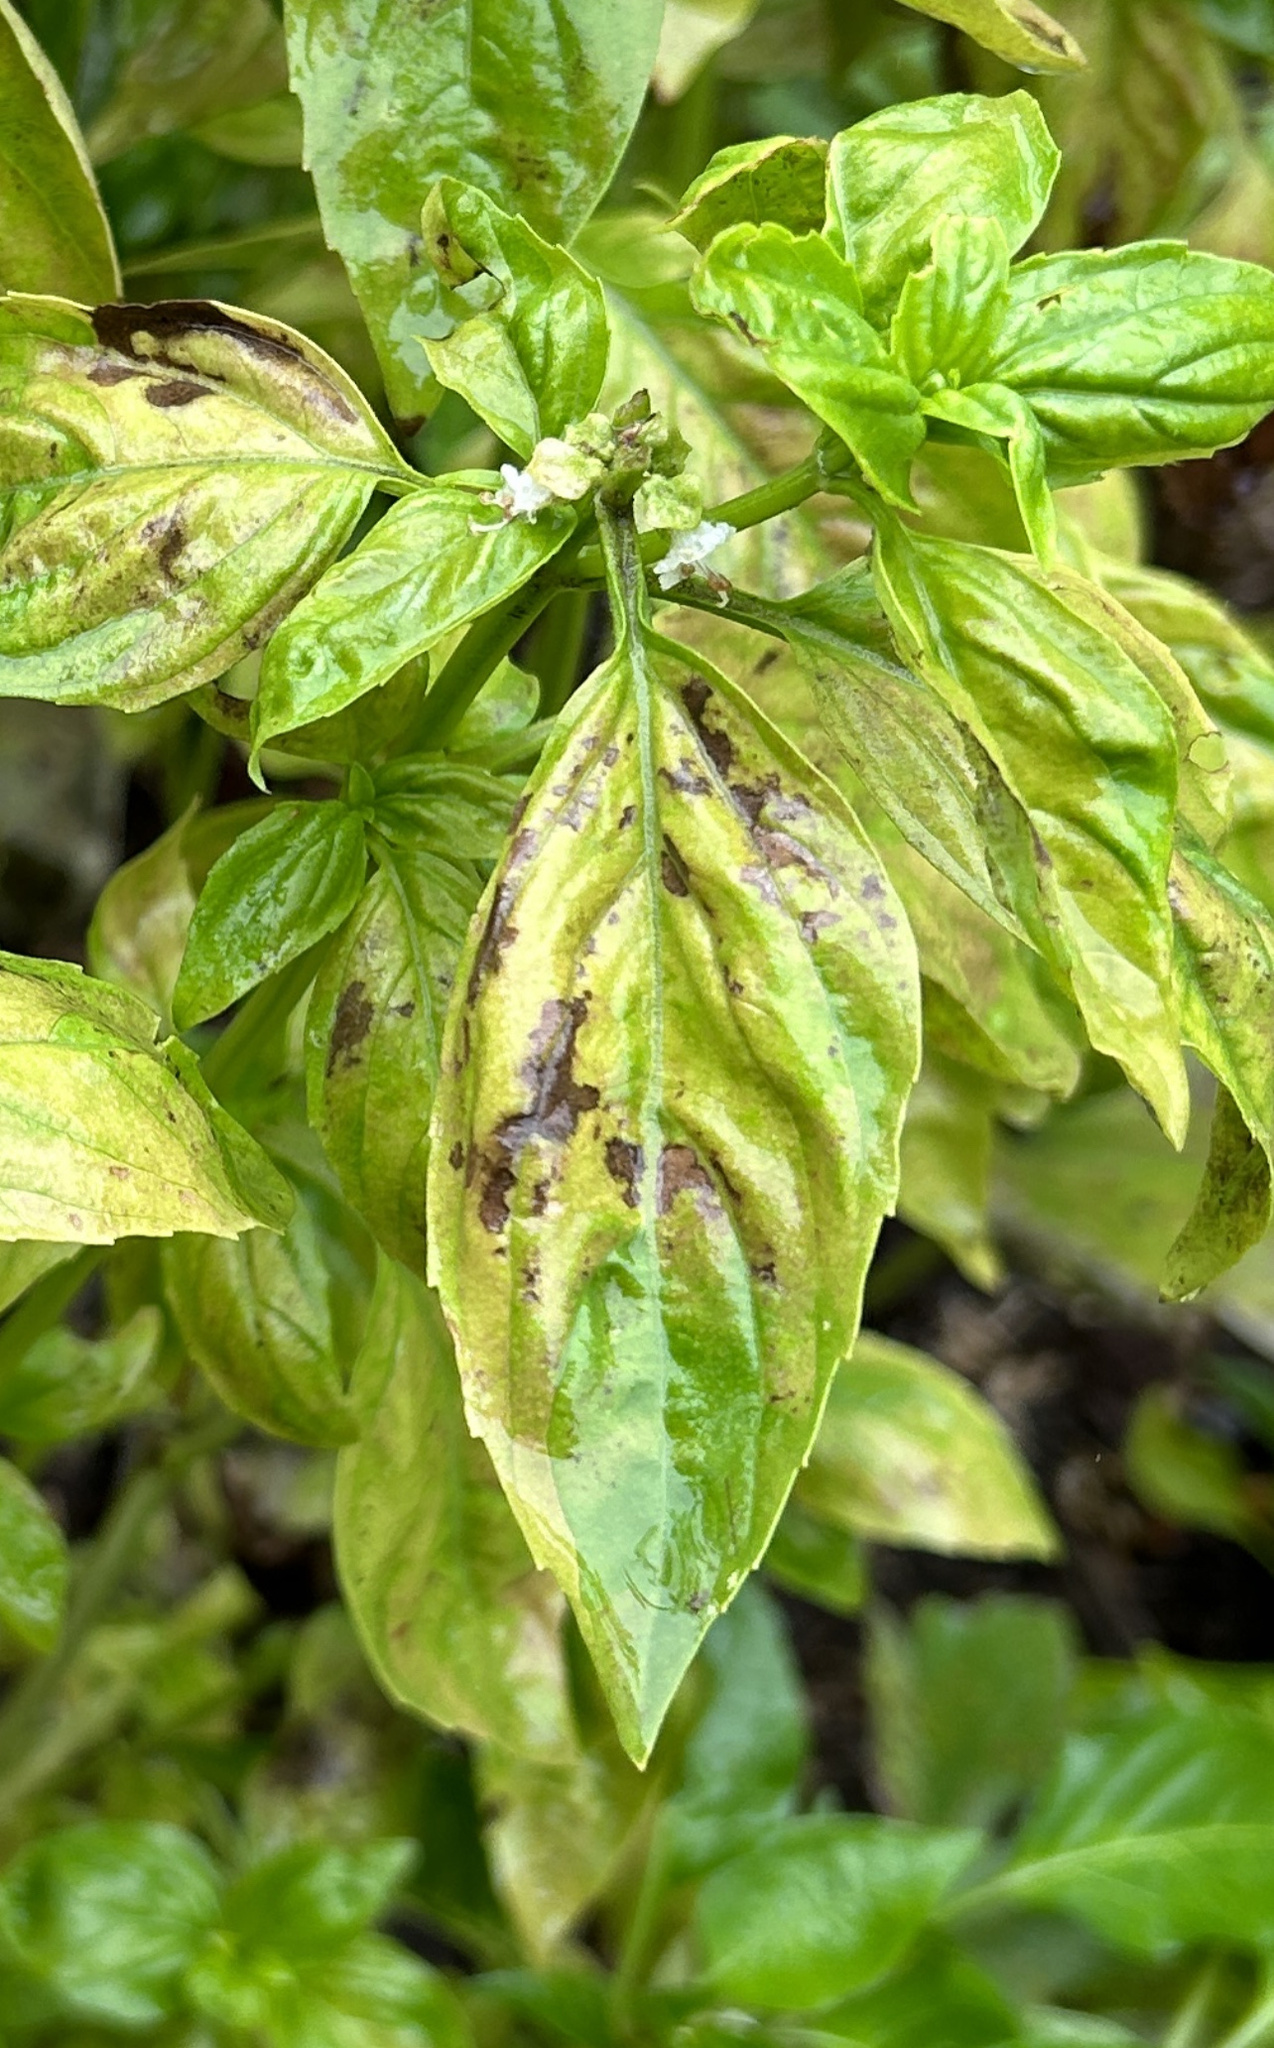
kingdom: Chromista
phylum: Oomycota
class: Peronosporea
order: Peronosporales
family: Peronosporaceae
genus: Peronospora
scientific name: Peronospora belbahrii
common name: Basil downy mildew
